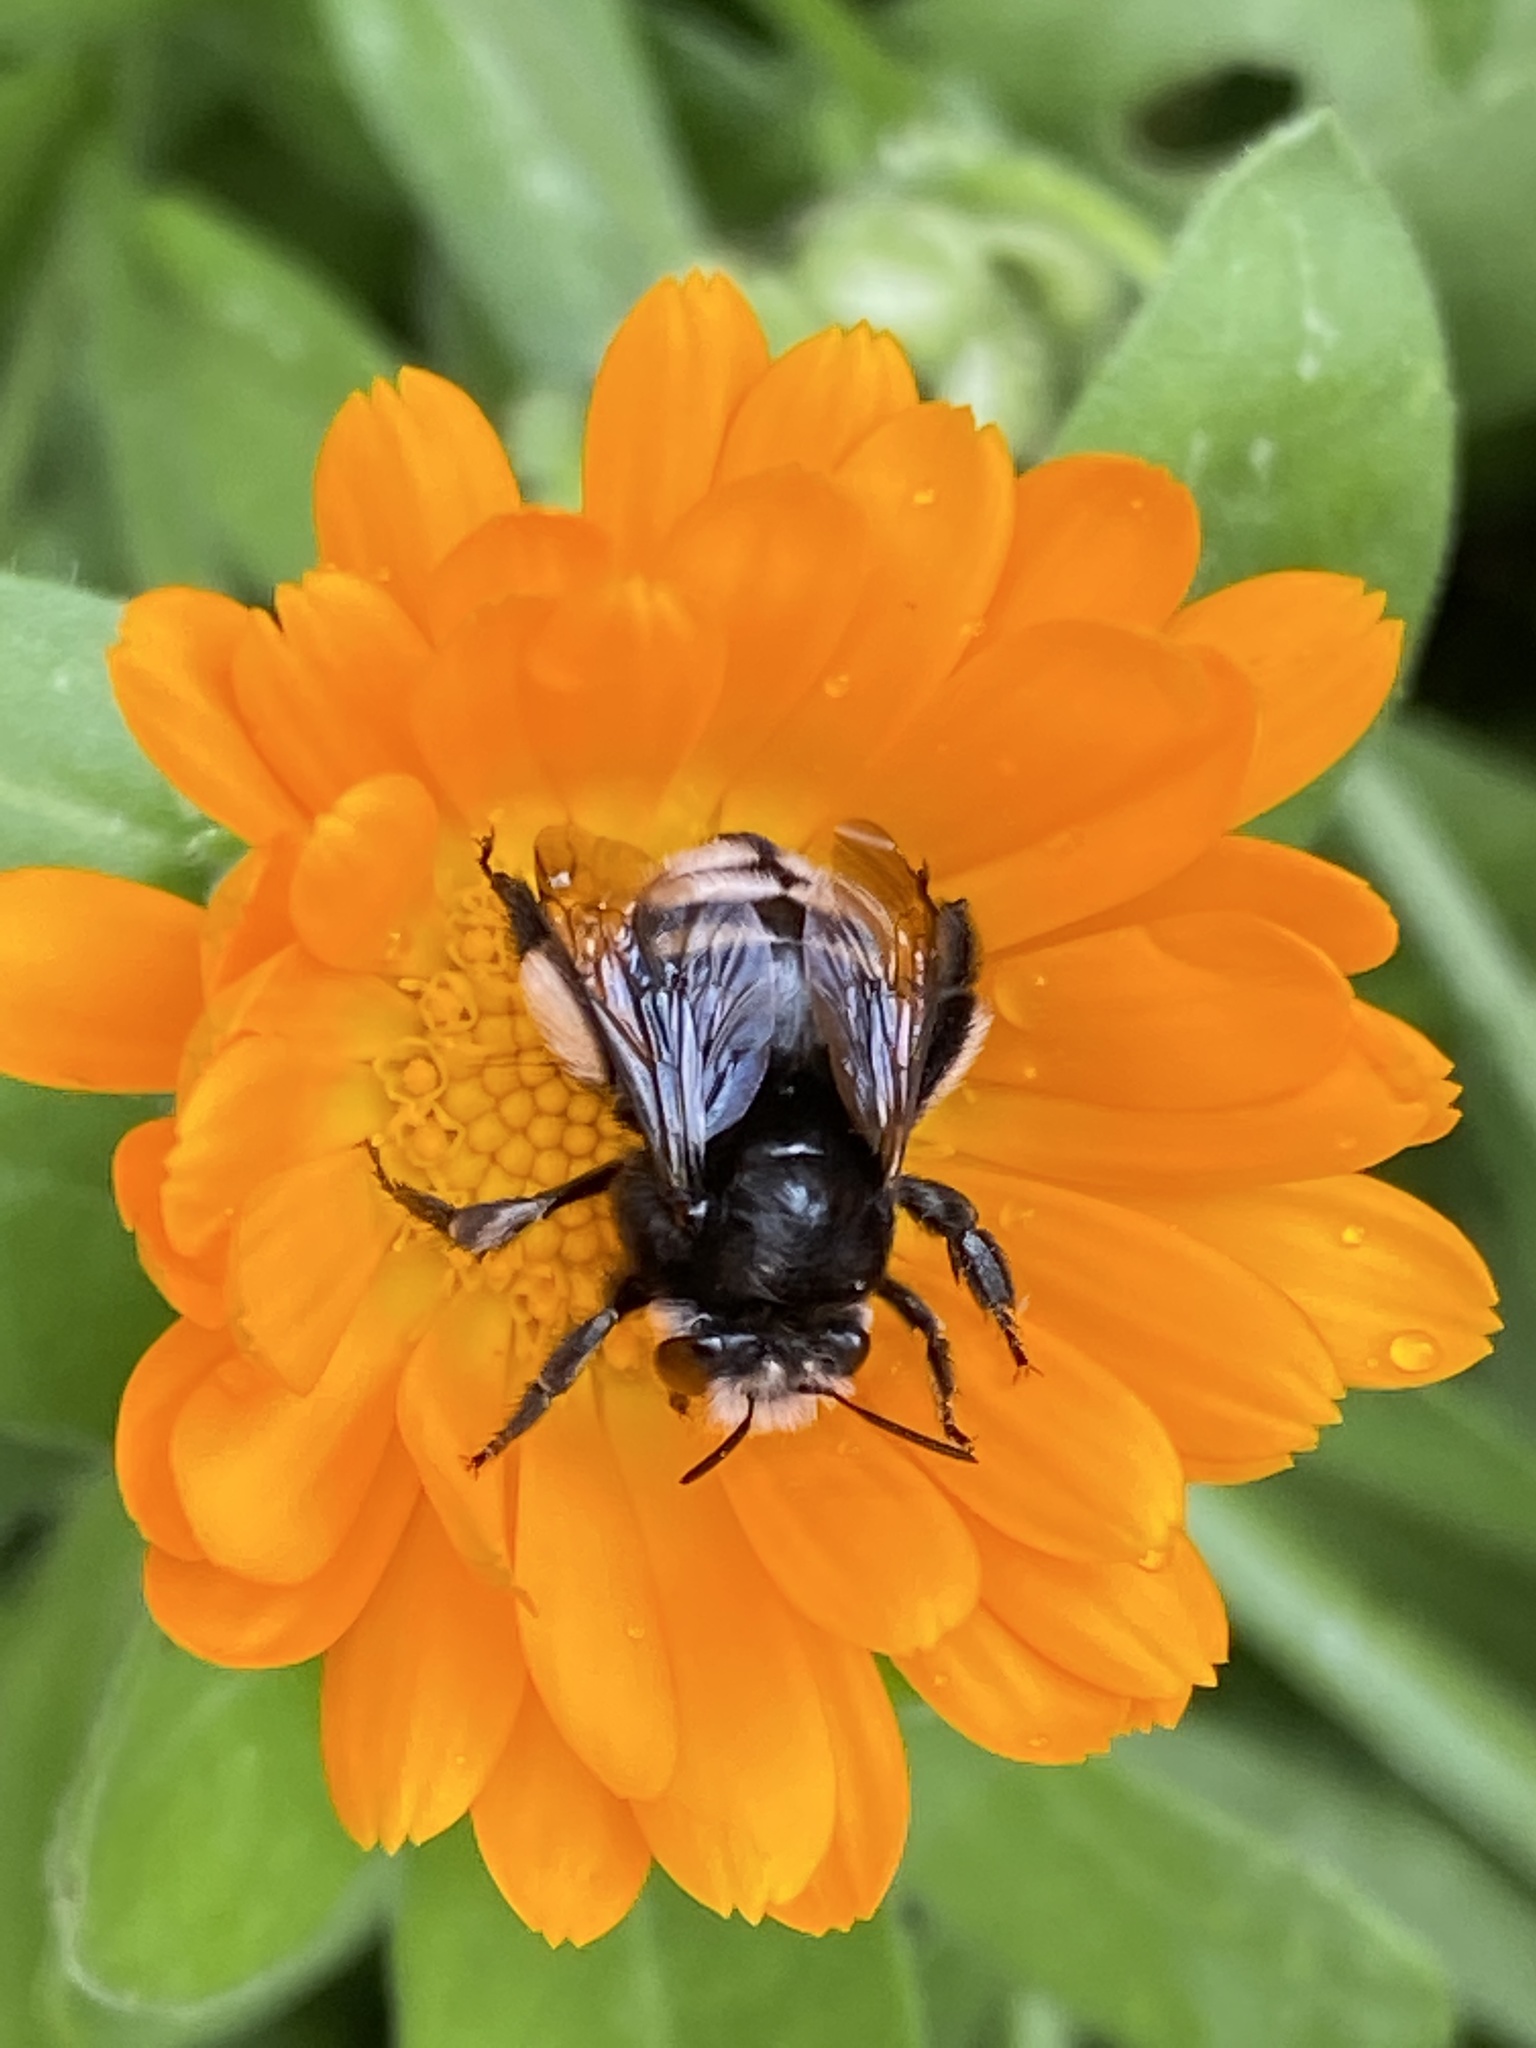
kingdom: Animalia
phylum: Arthropoda
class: Insecta
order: Hymenoptera
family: Apidae
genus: Anthophora
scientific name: Anthophora alluaudi
